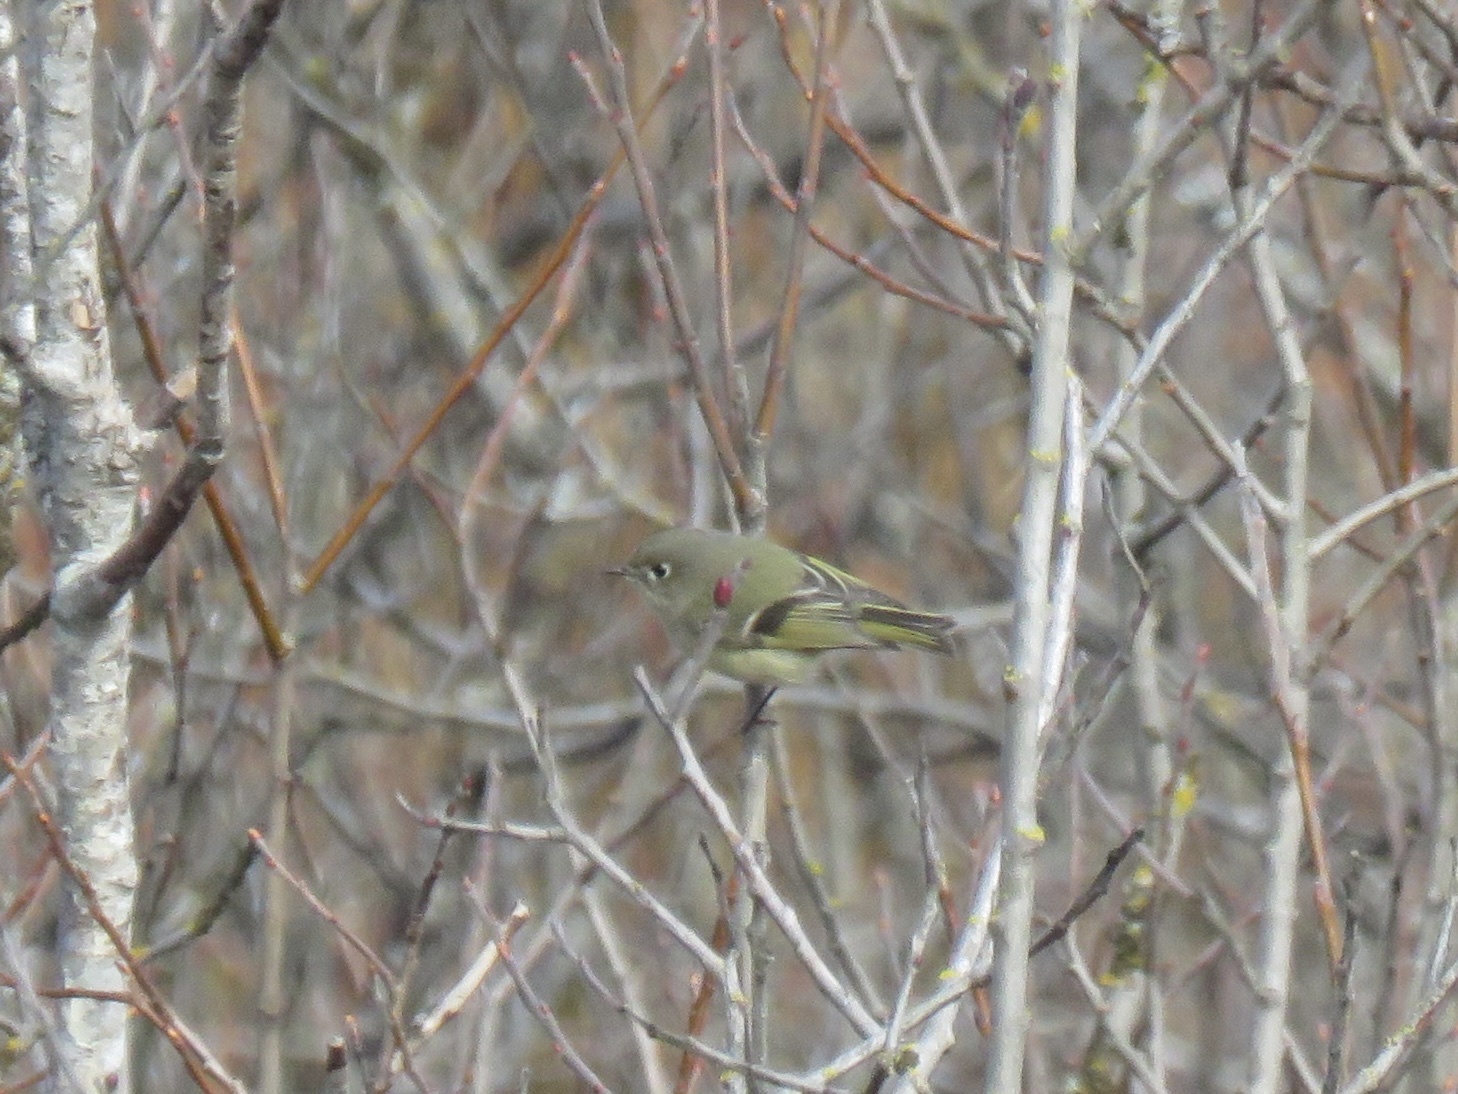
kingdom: Animalia
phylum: Chordata
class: Aves
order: Passeriformes
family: Regulidae
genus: Regulus
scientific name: Regulus calendula
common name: Ruby-crowned kinglet
